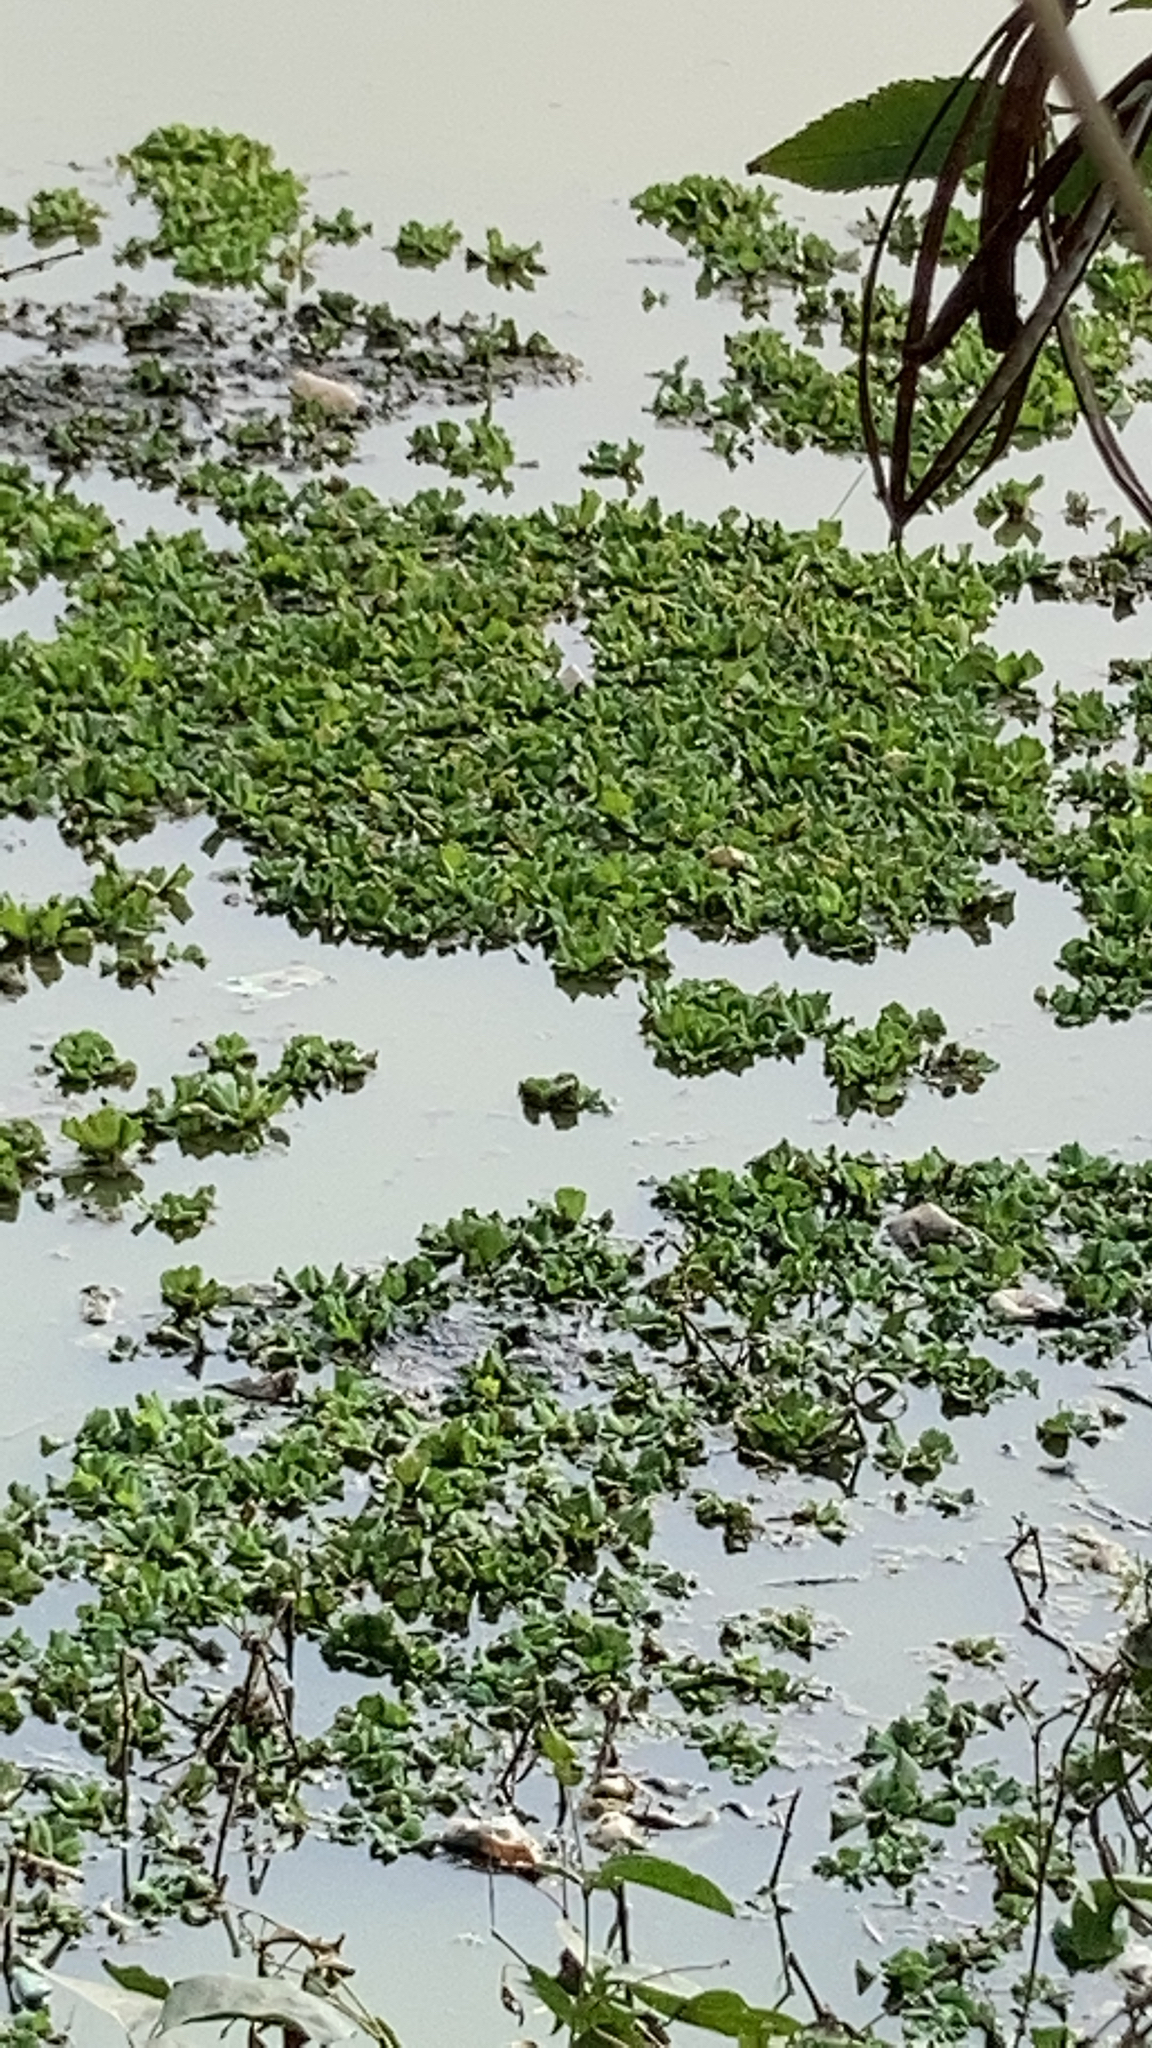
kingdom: Plantae
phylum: Tracheophyta
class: Liliopsida
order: Alismatales
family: Araceae
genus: Pistia
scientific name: Pistia stratiotes
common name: Water lettuce
